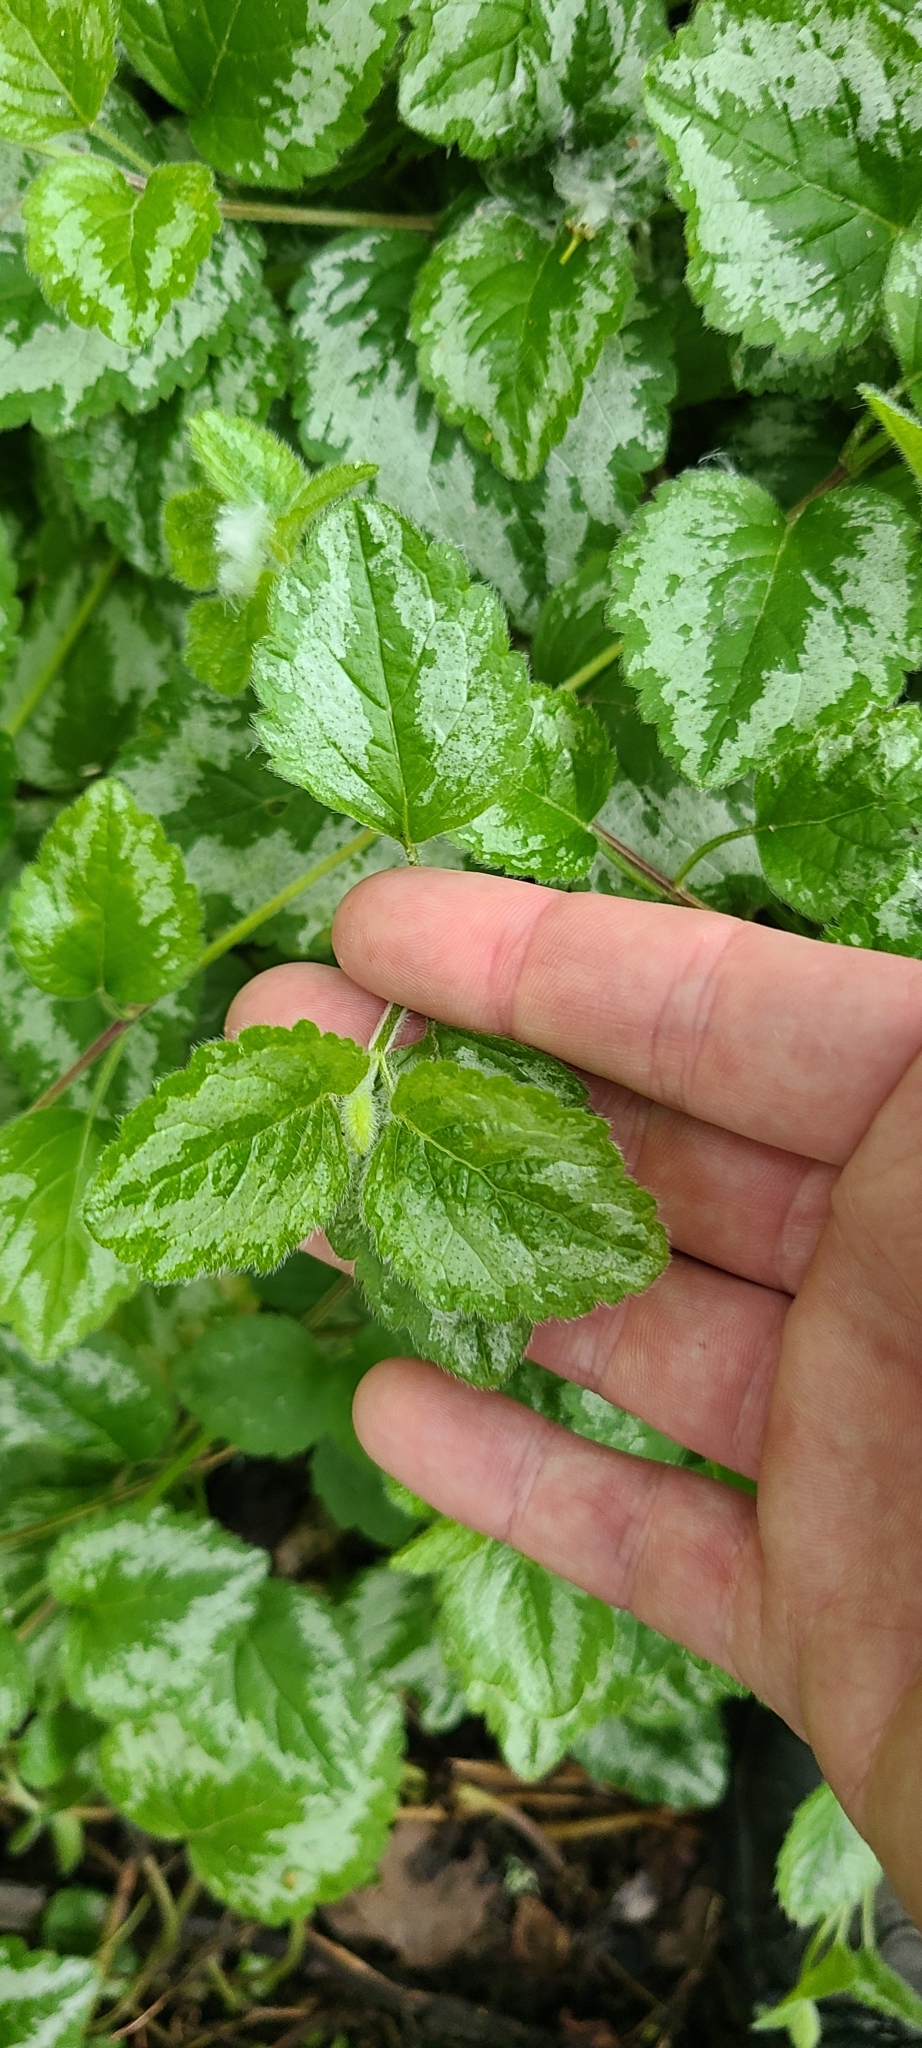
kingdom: Plantae
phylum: Tracheophyta
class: Magnoliopsida
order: Lamiales
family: Lamiaceae
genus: Lamium
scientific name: Lamium galeobdolon
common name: Yellow archangel
